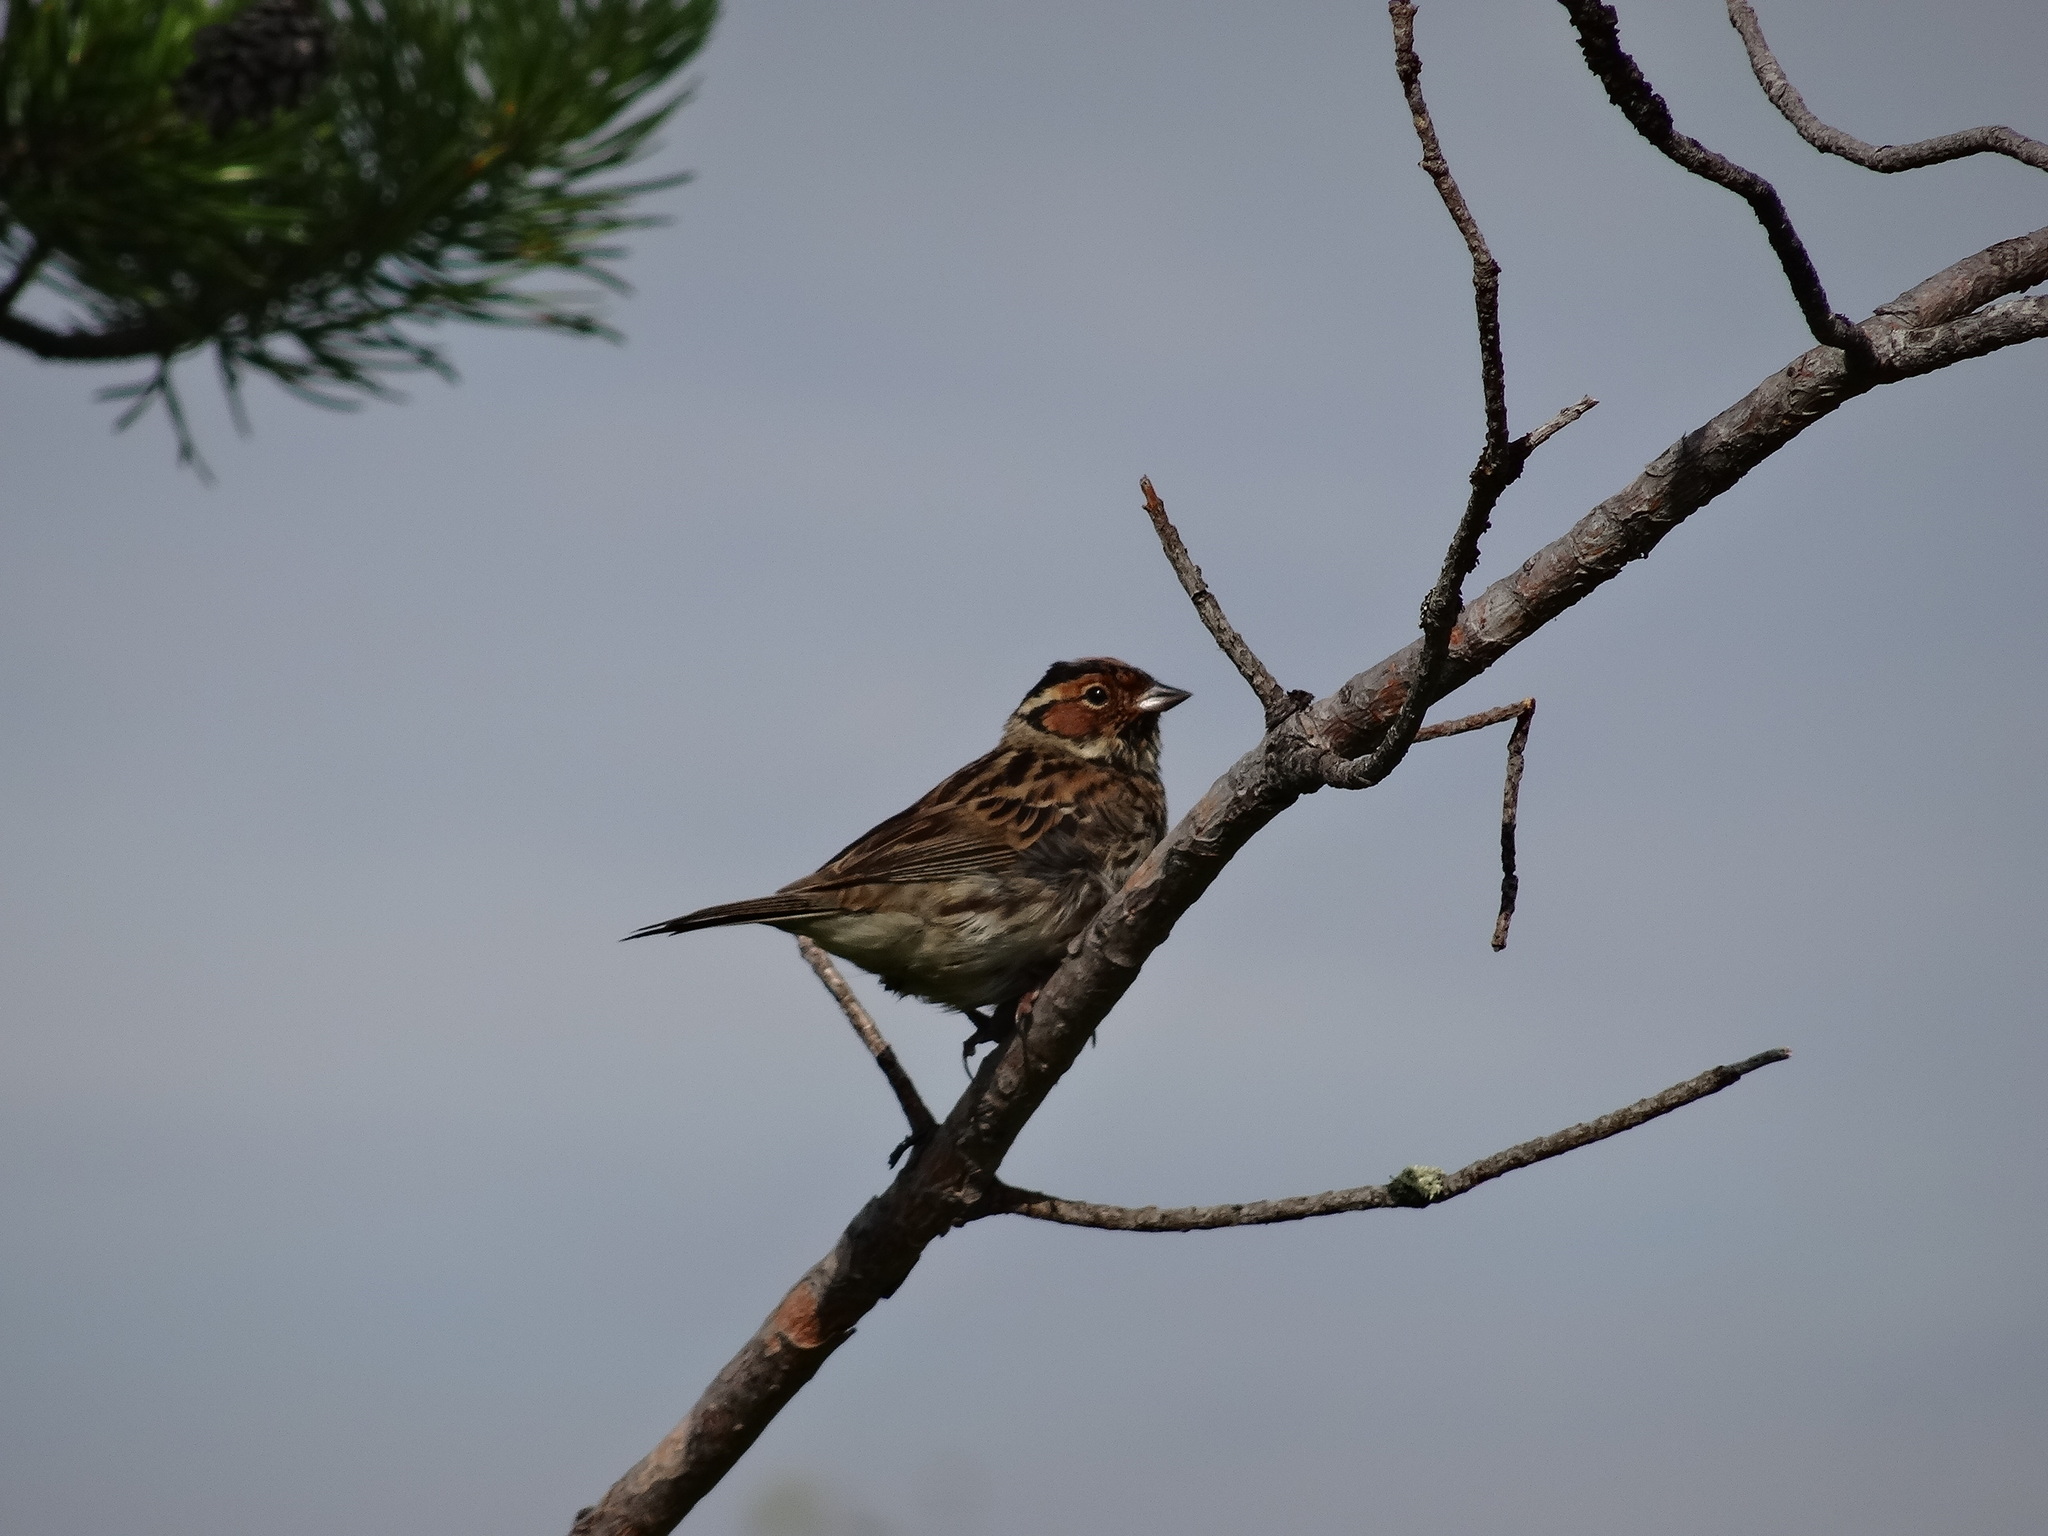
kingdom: Animalia
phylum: Chordata
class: Aves
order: Passeriformes
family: Emberizidae
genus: Emberiza
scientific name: Emberiza pusilla
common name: Little bunting
